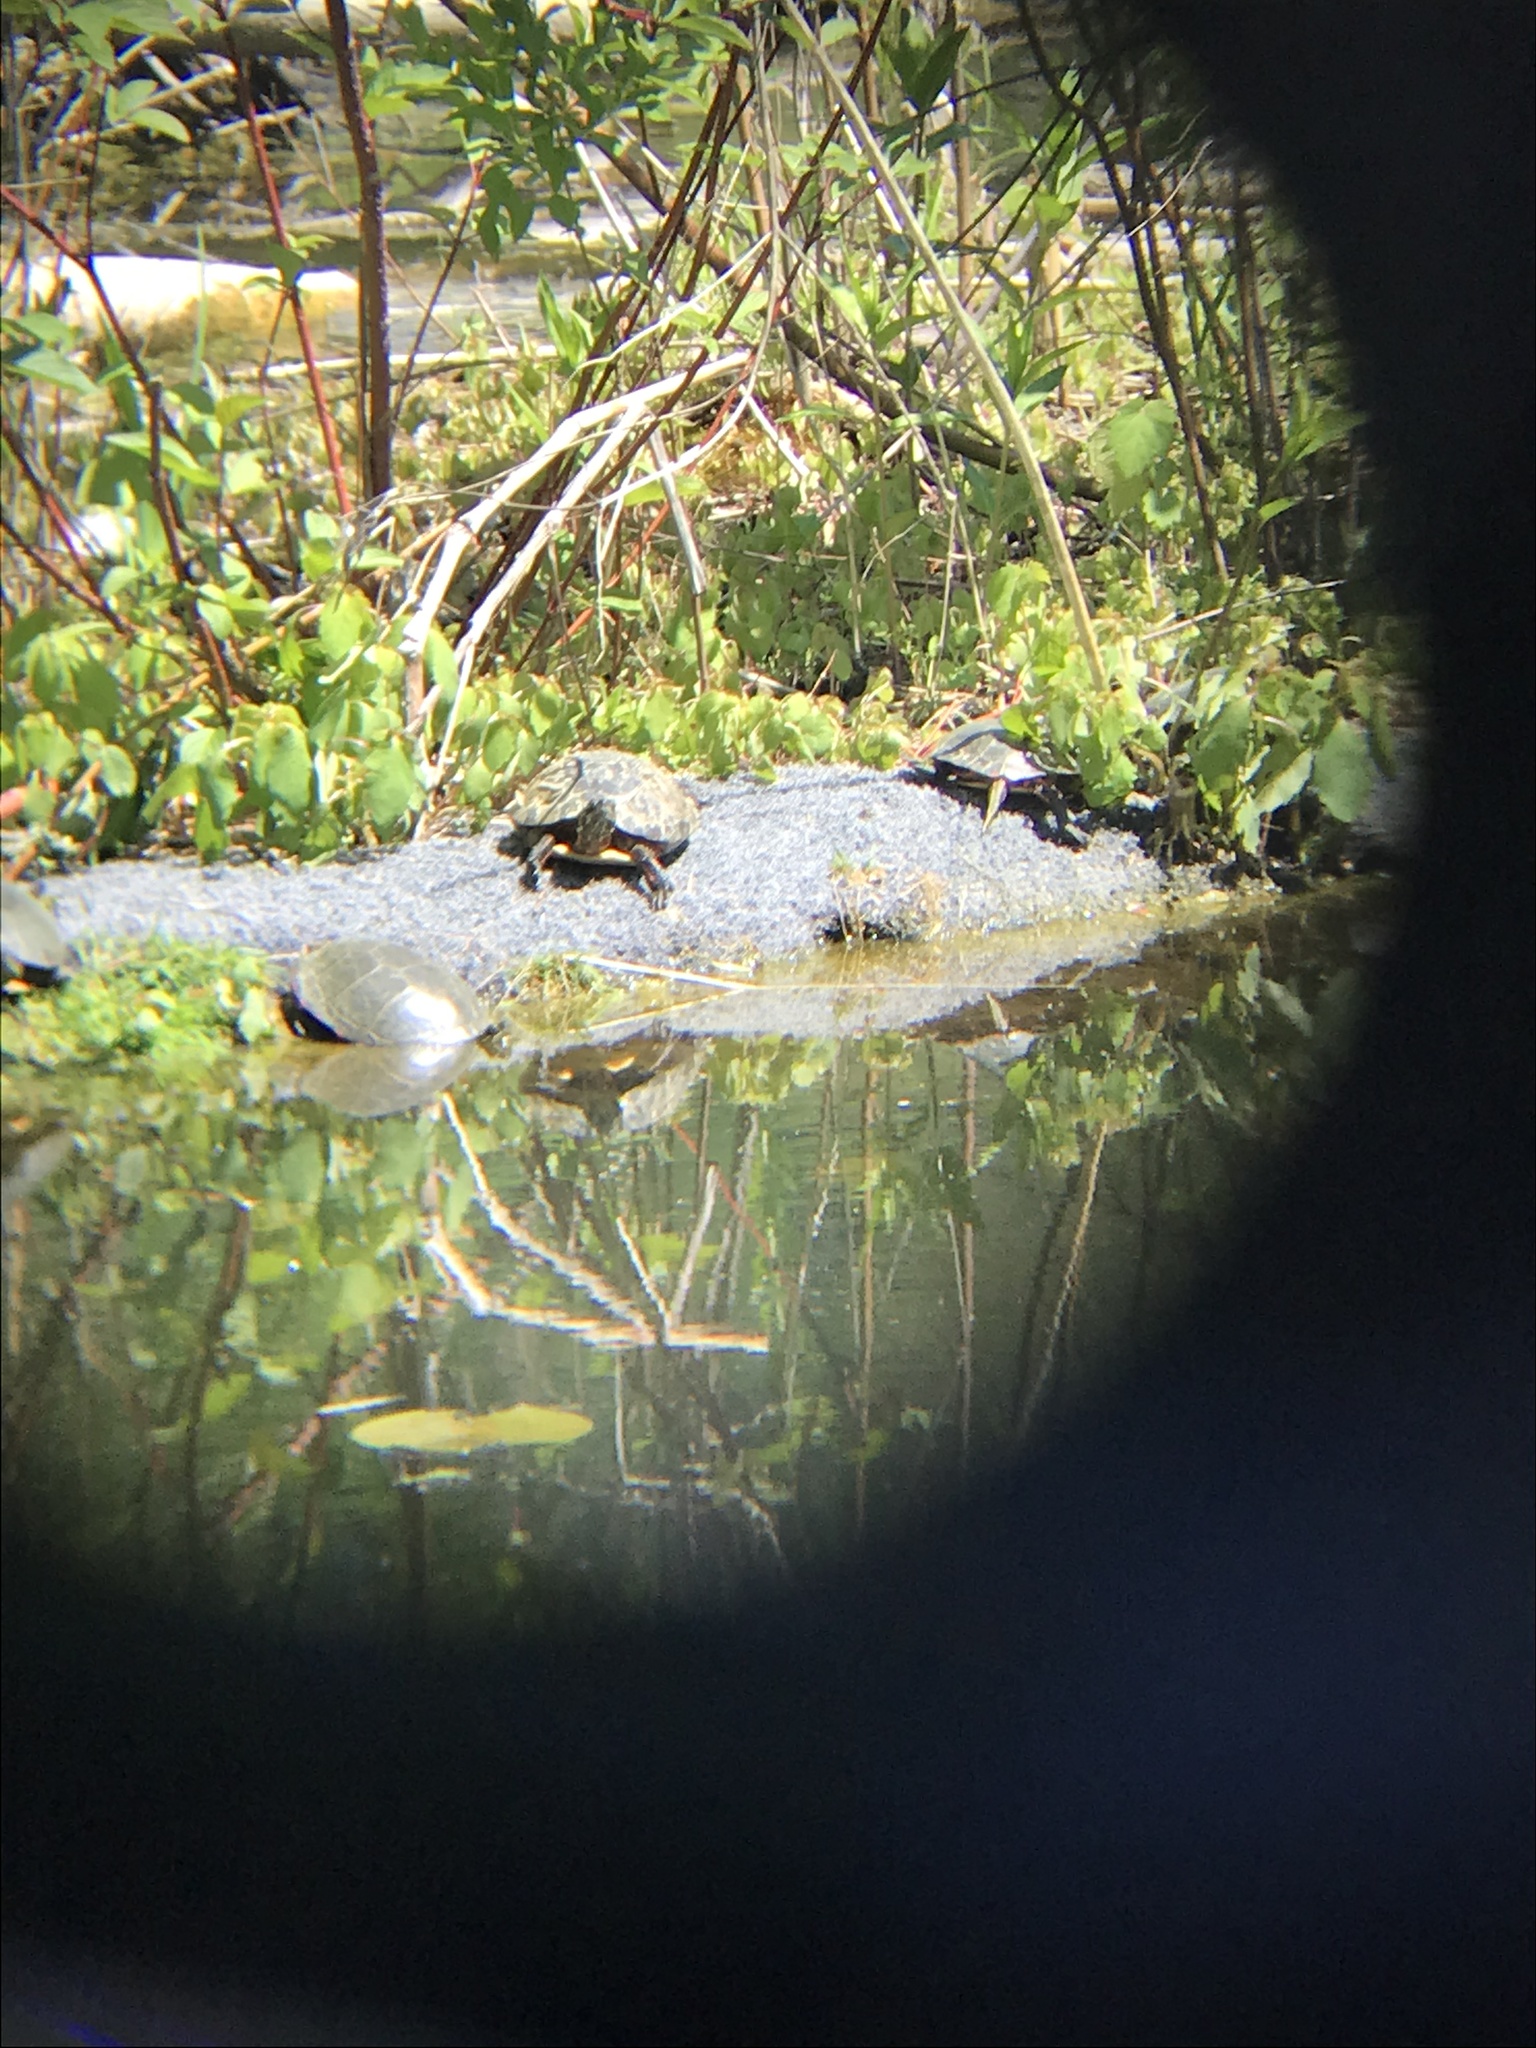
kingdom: Animalia
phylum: Chordata
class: Testudines
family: Emydidae
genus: Chrysemys
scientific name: Chrysemys picta
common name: Painted turtle
